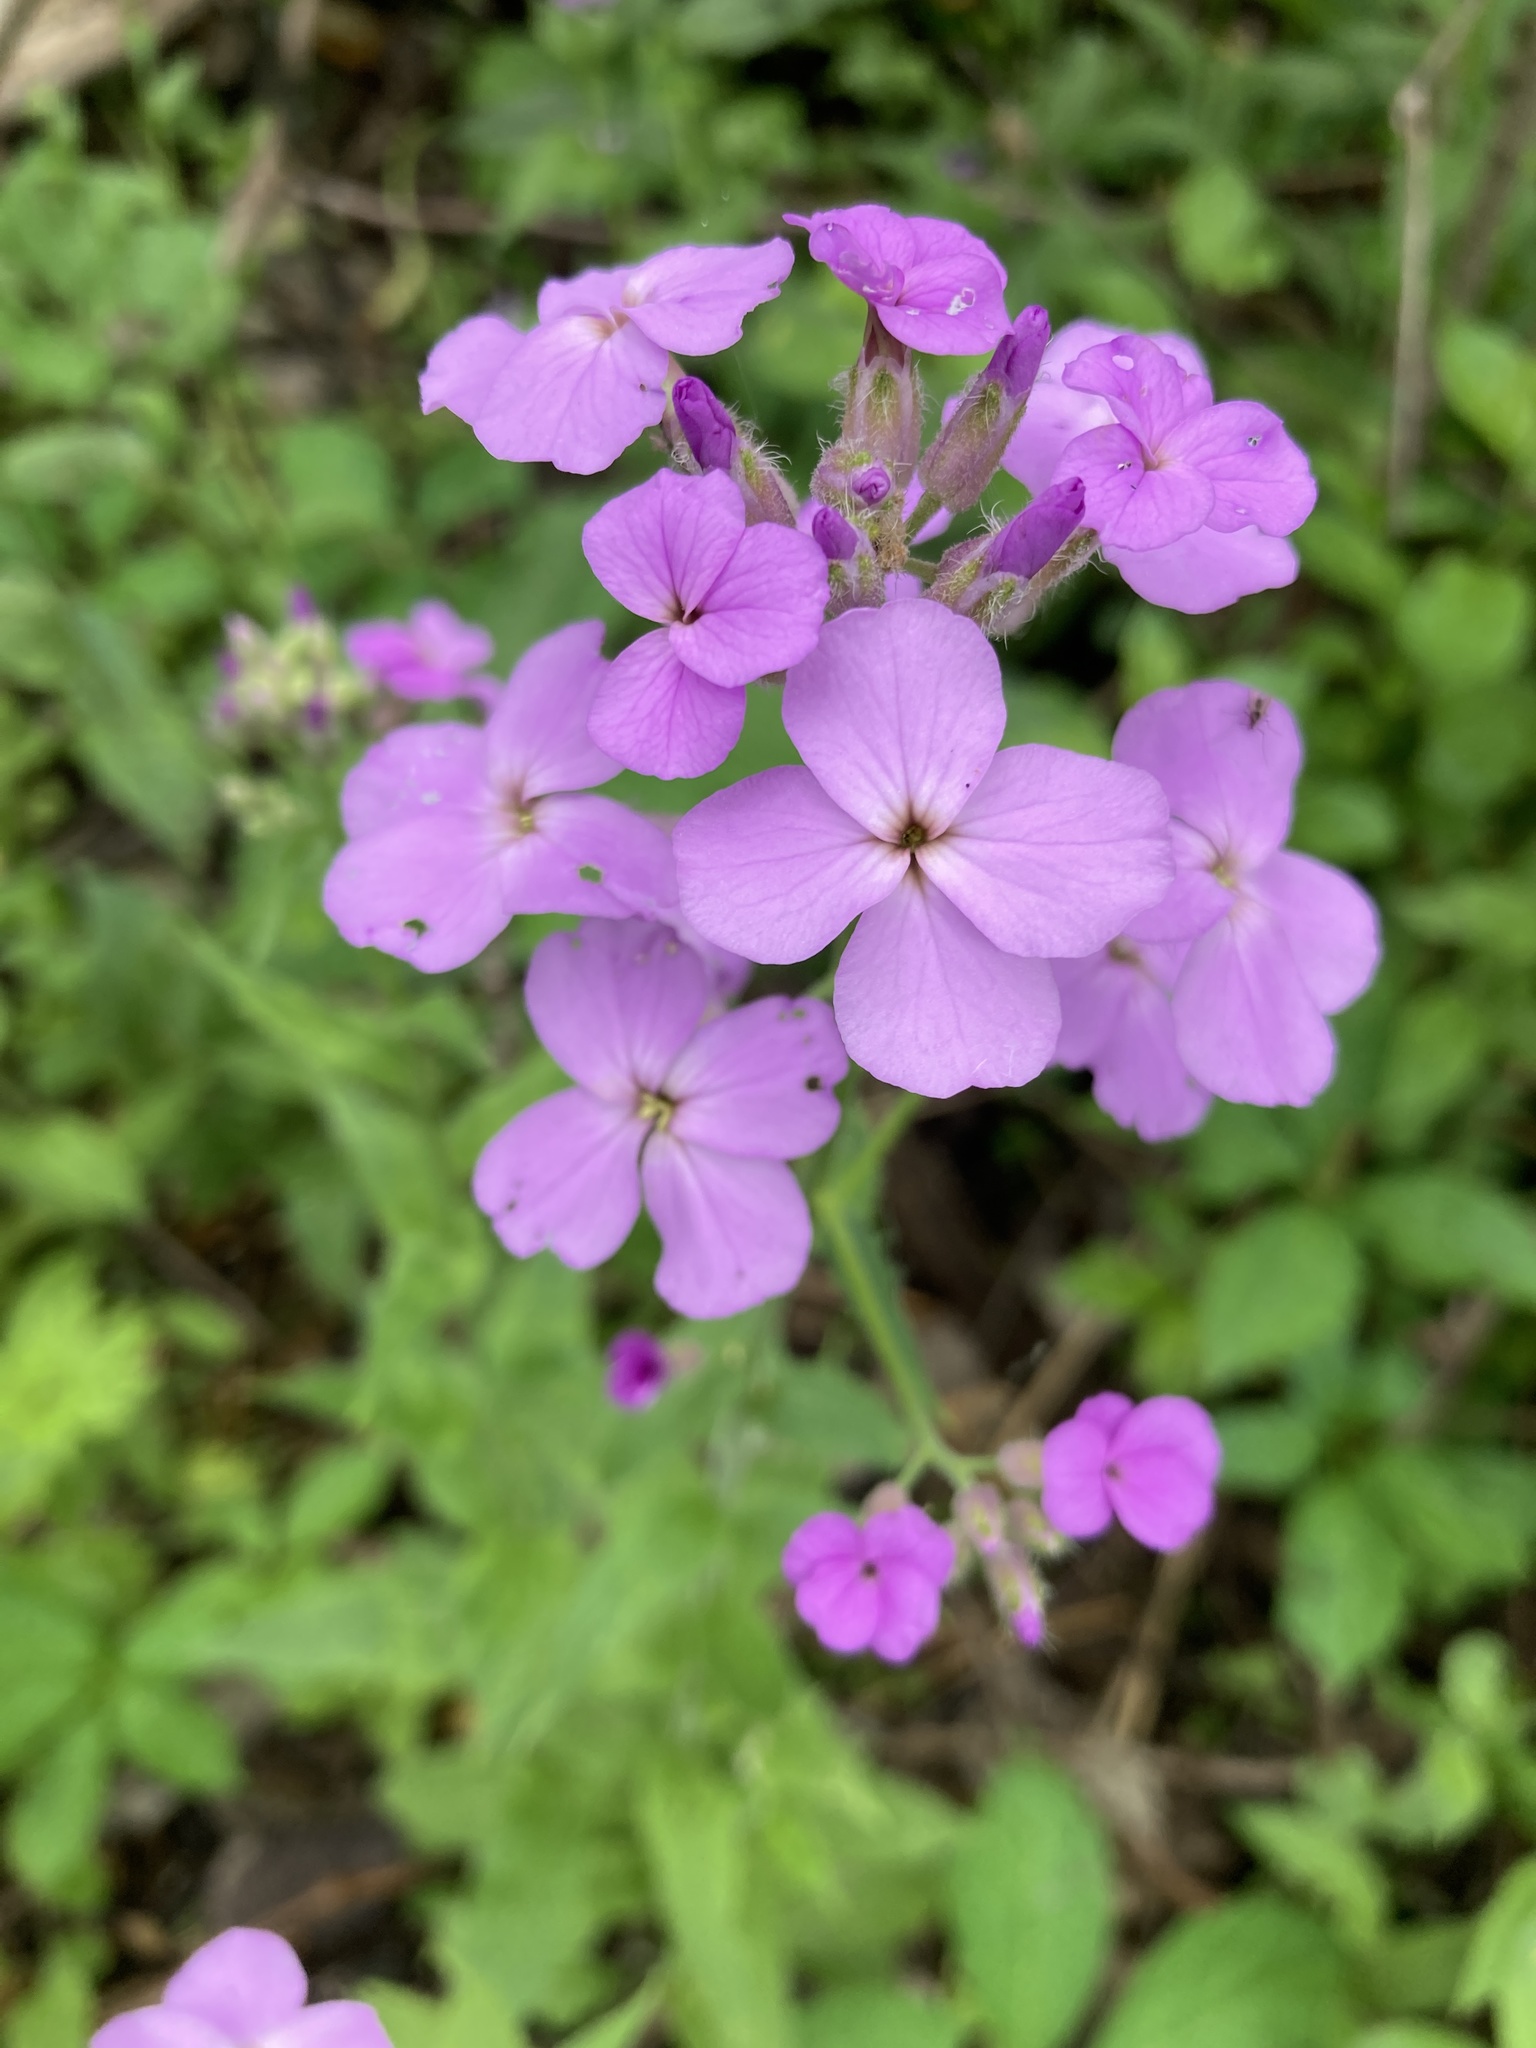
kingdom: Plantae
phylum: Tracheophyta
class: Magnoliopsida
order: Brassicales
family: Brassicaceae
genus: Hesperis
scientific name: Hesperis matronalis
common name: Dame's-violet
